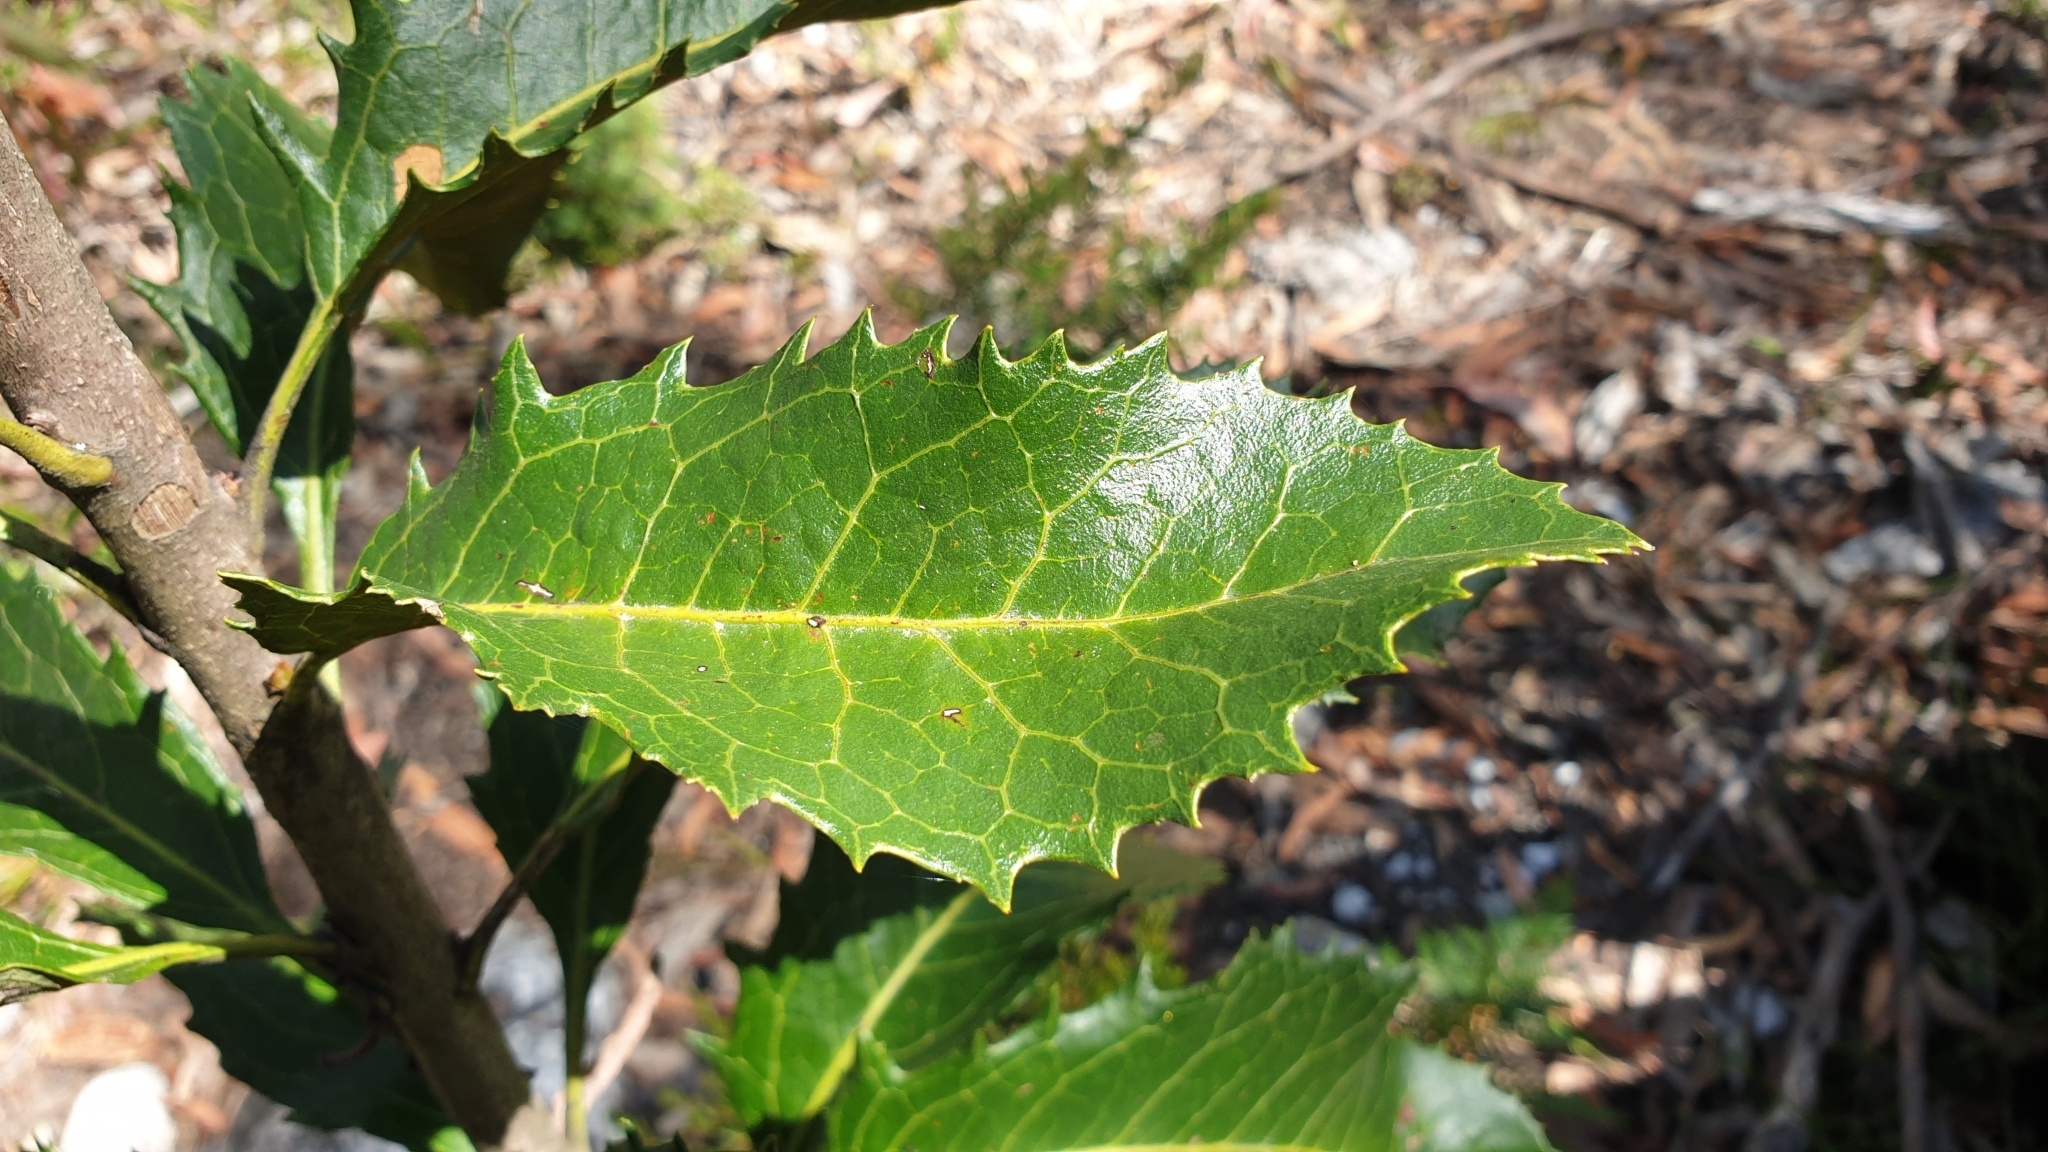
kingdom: Plantae
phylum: Tracheophyta
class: Magnoliopsida
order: Proteales
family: Proteaceae
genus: Telopea
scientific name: Telopea aspera
